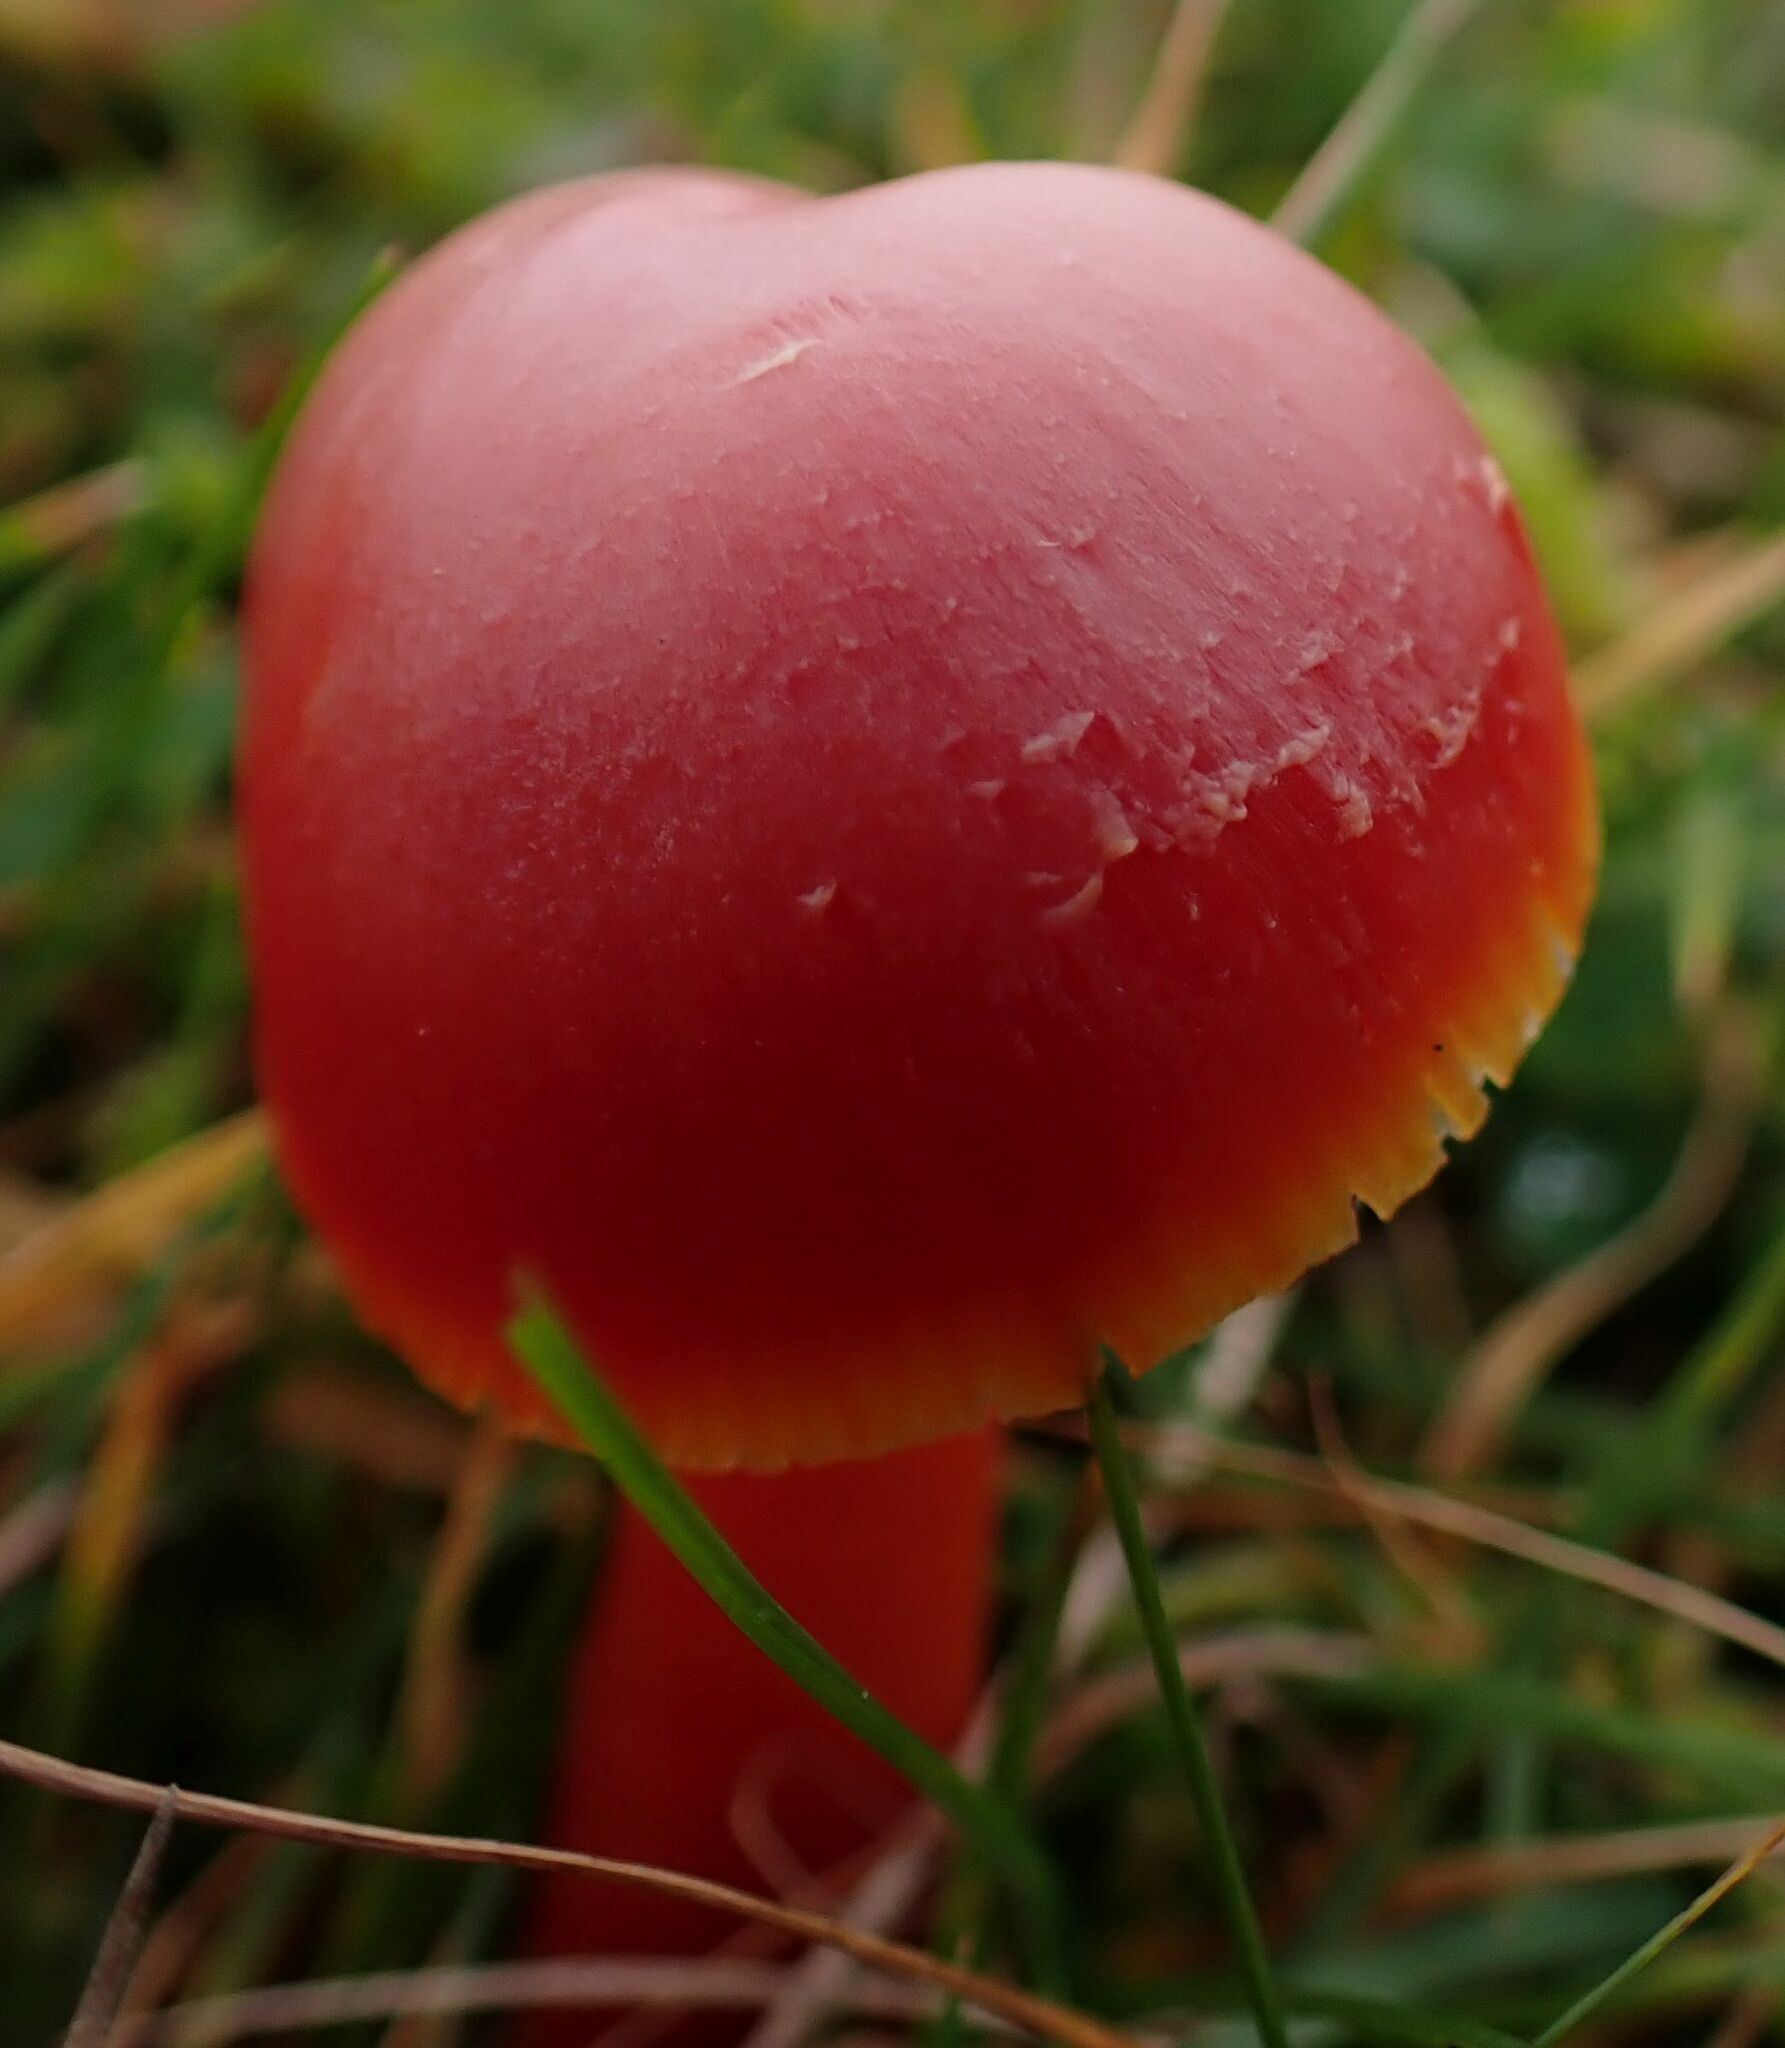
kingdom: Fungi
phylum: Basidiomycota
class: Agaricomycetes
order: Agaricales
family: Hygrophoraceae
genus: Hygrocybe
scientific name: Hygrocybe coccinea
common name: Scarlet hood
